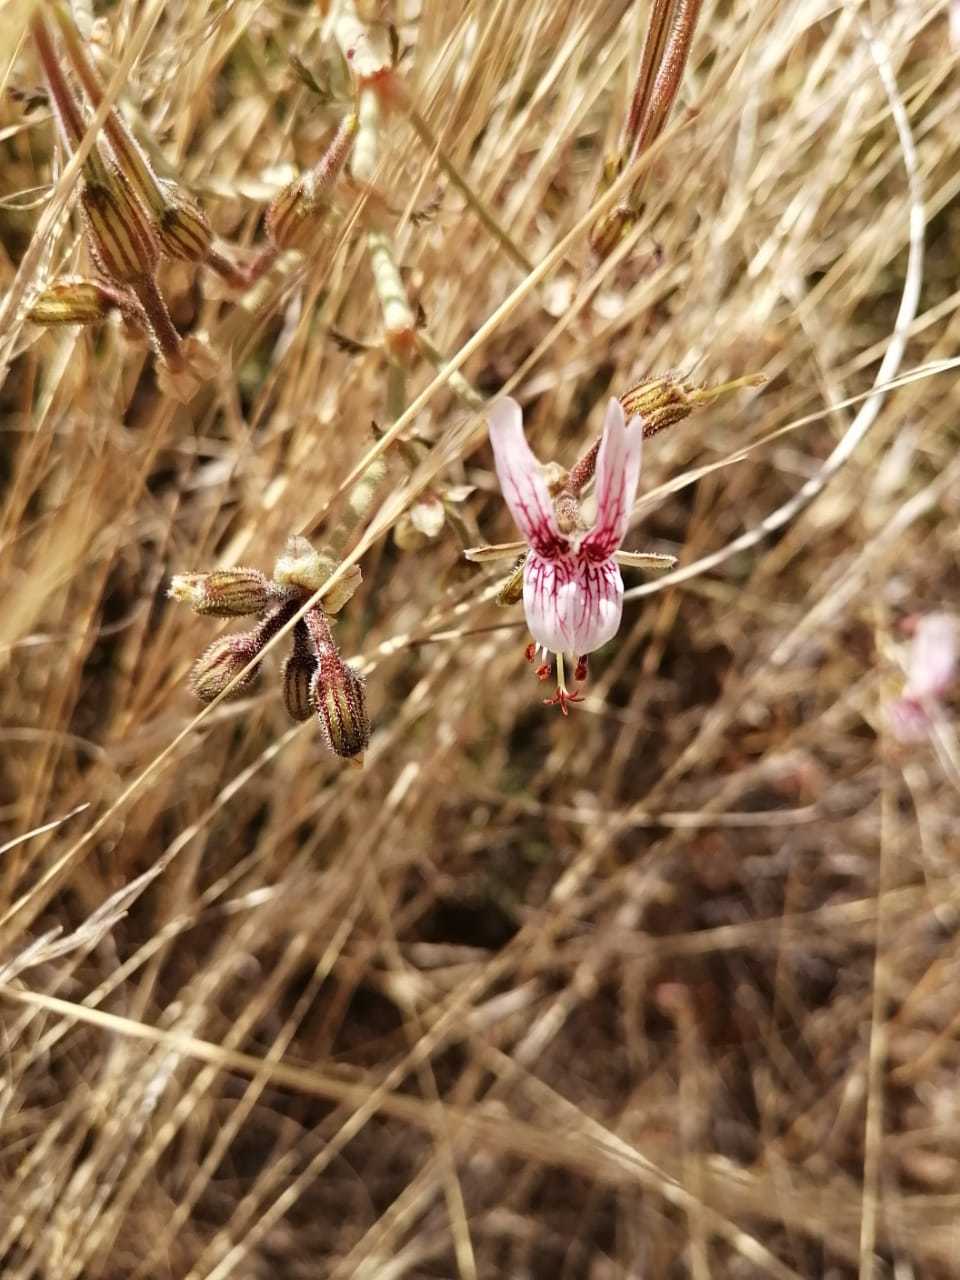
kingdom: Plantae
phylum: Tracheophyta
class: Magnoliopsida
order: Geraniales
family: Geraniaceae
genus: Pelargonium
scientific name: Pelargonium dolomiticum
